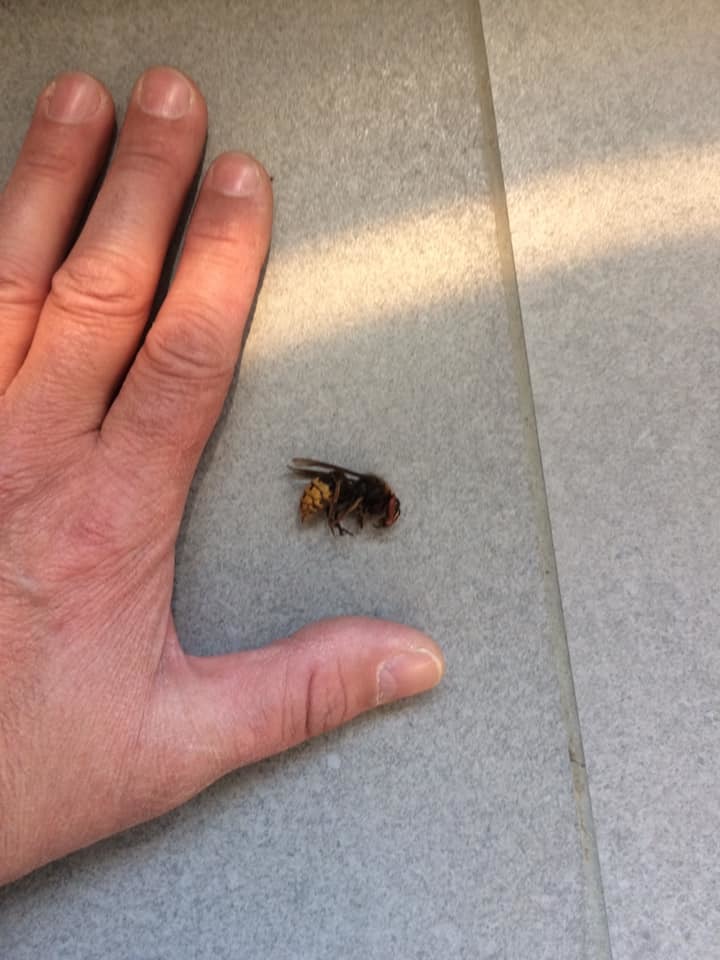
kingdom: Animalia
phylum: Arthropoda
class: Insecta
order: Hymenoptera
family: Vespidae
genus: Vespa
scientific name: Vespa crabro
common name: Hornet
